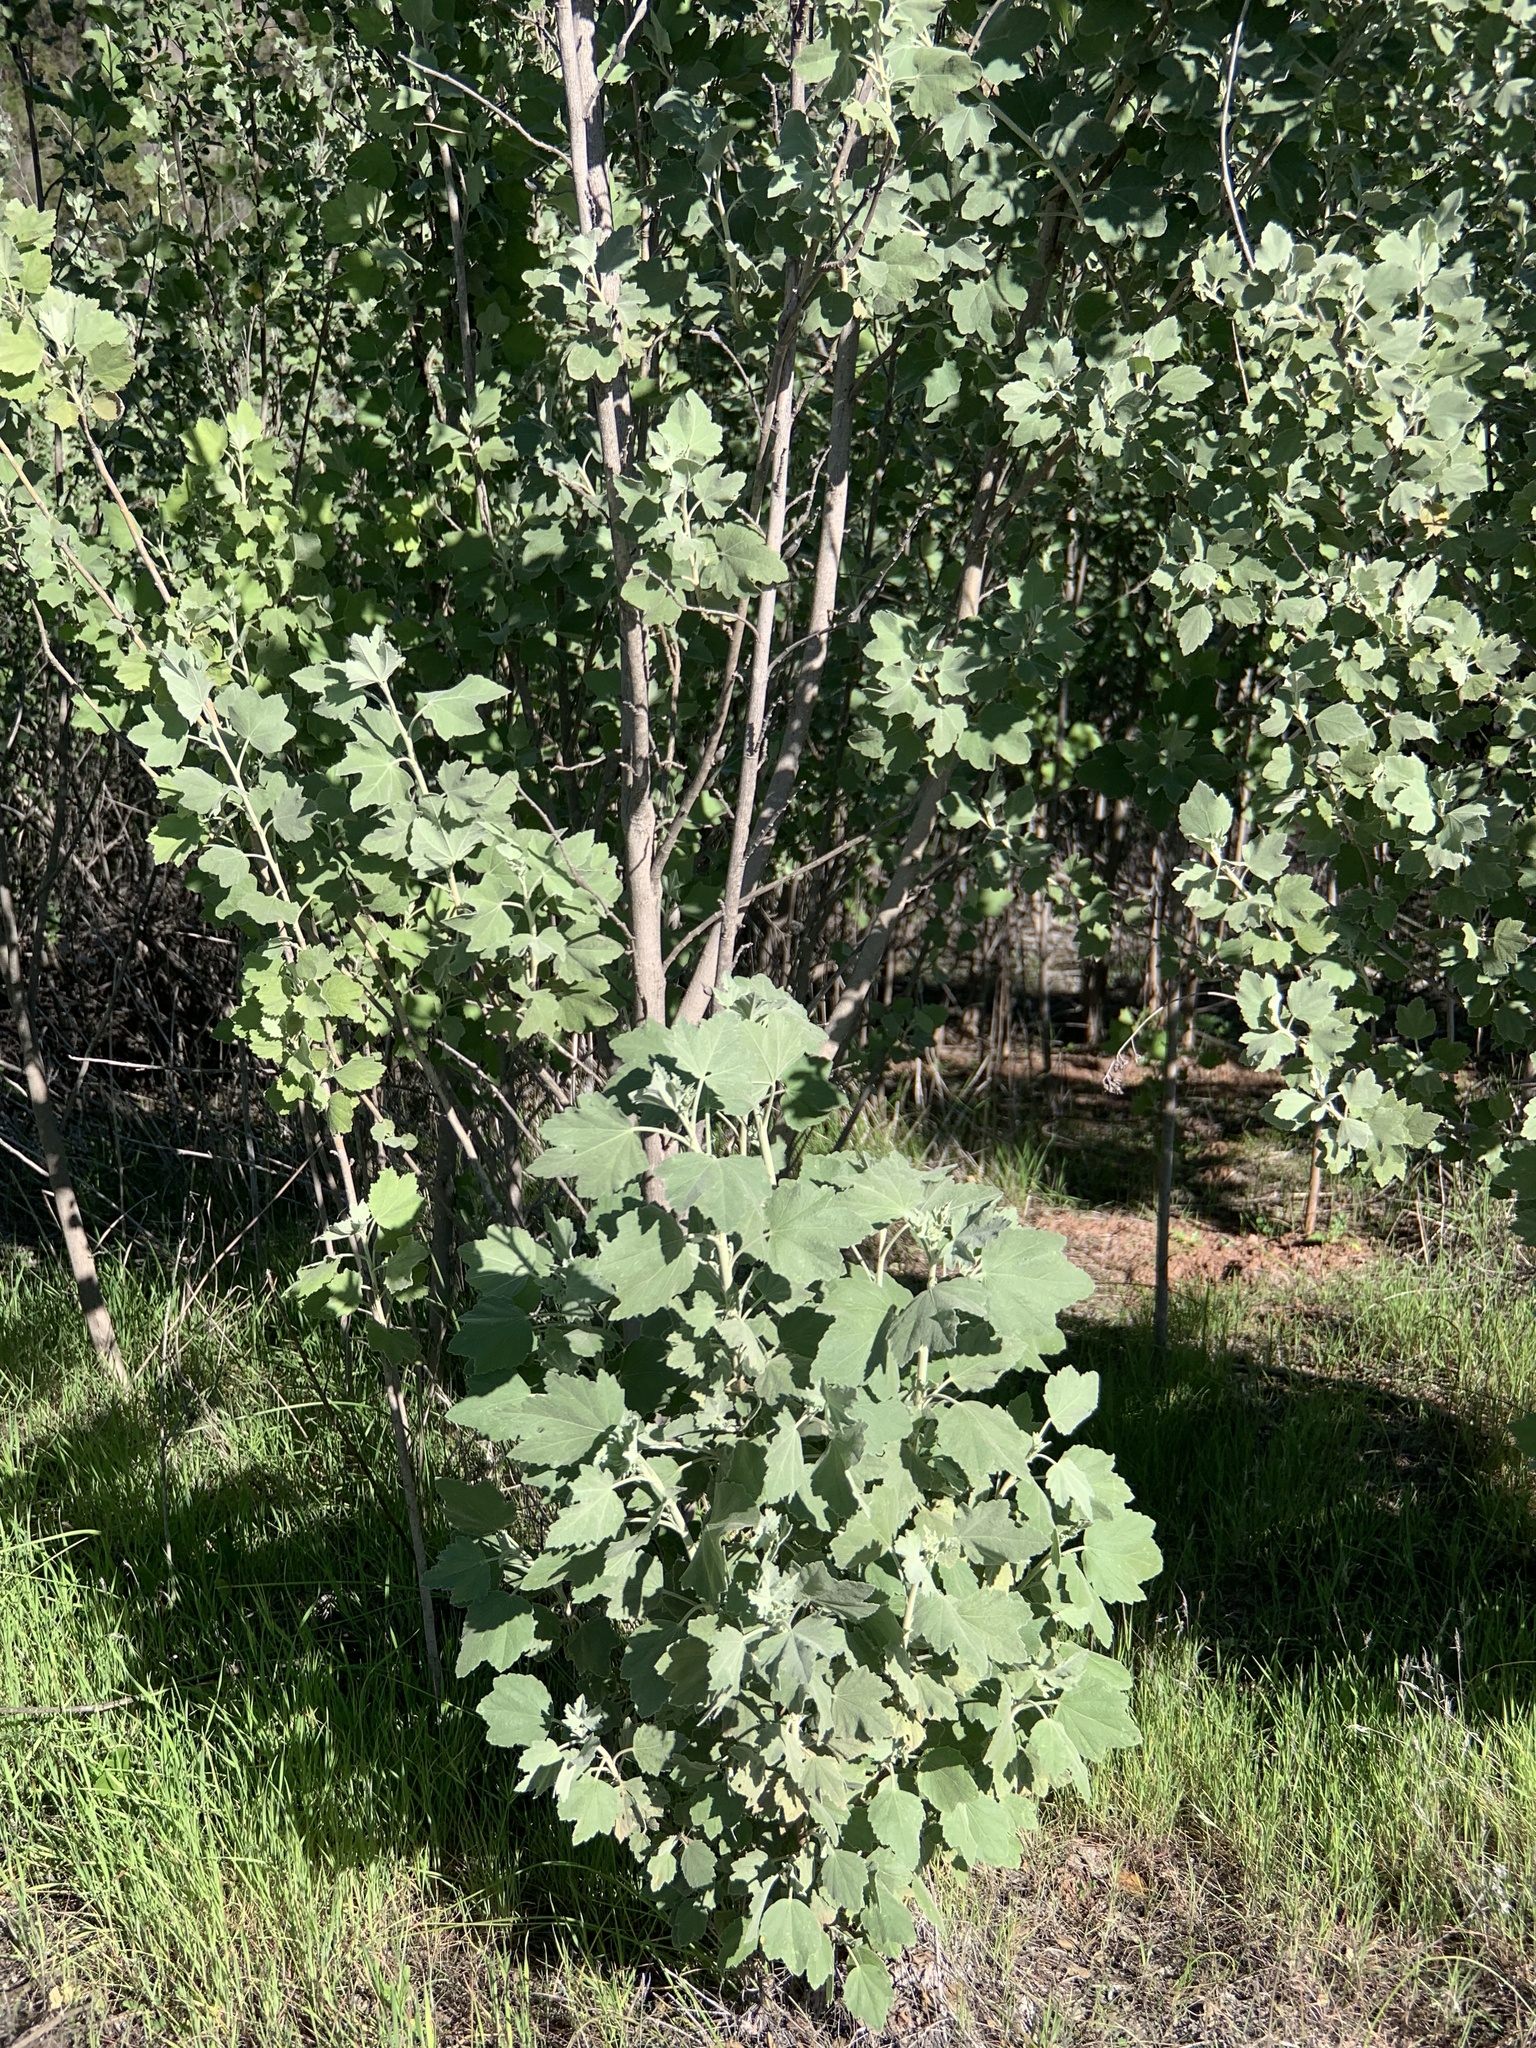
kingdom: Plantae
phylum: Tracheophyta
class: Magnoliopsida
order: Malvales
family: Malvaceae
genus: Malacothamnus
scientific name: Malacothamnus fasciculatus
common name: Sant cruz island bush-mallow
